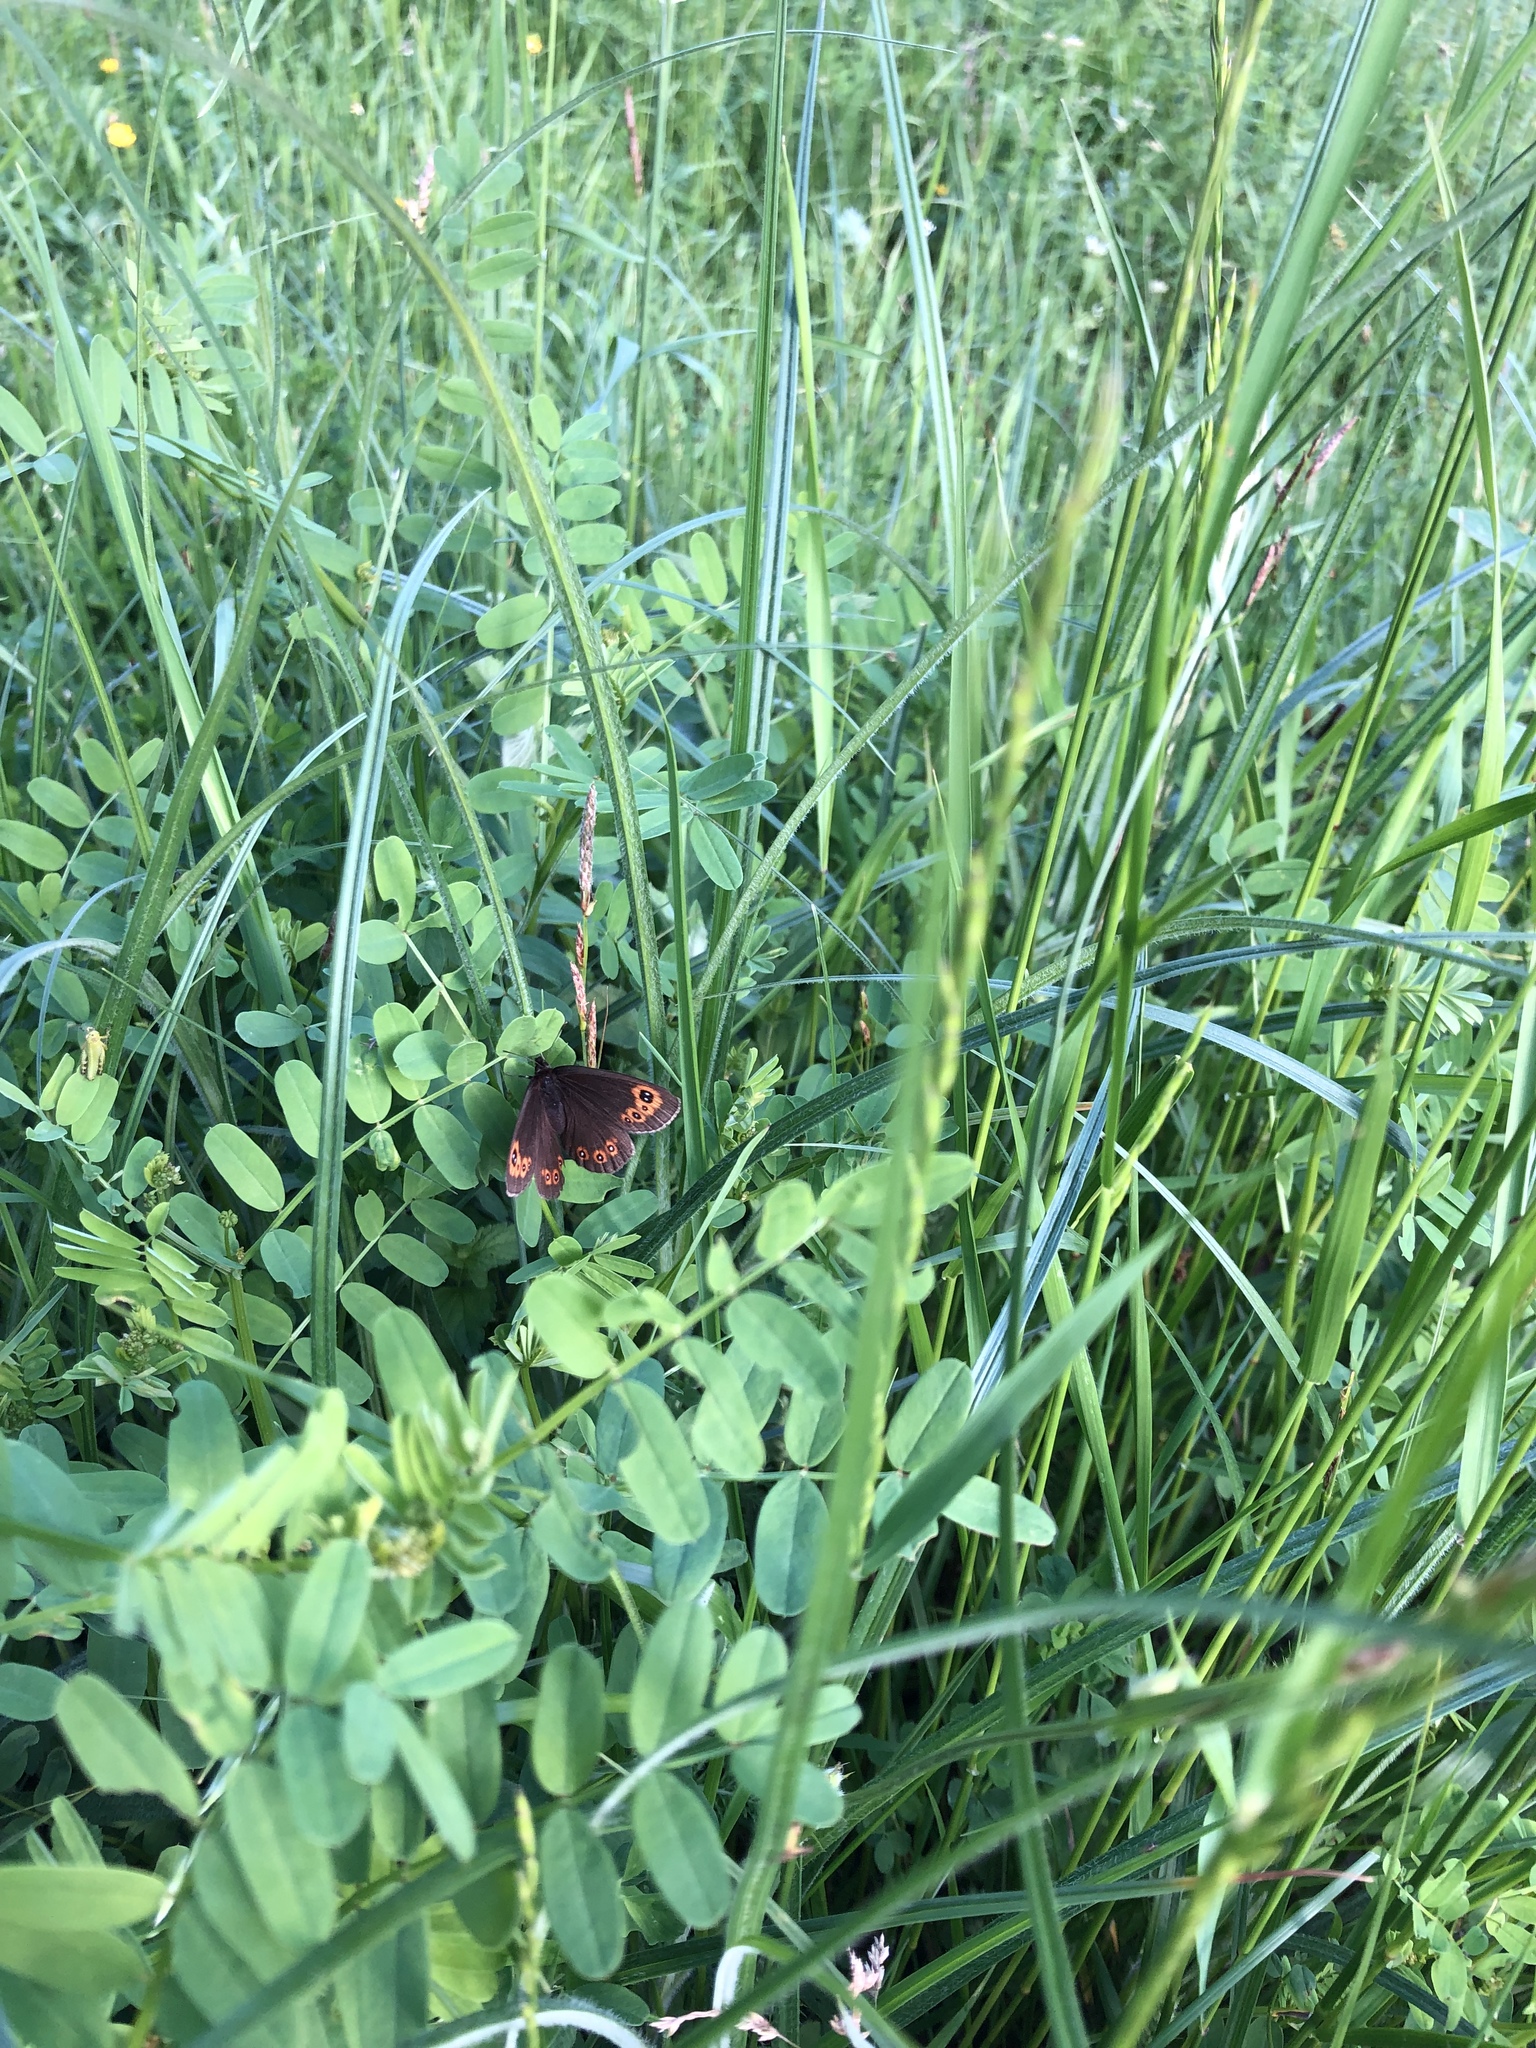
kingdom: Animalia
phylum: Arthropoda
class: Insecta
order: Lepidoptera
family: Nymphalidae
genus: Erebia
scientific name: Erebia medusa
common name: Woodland ringlet
